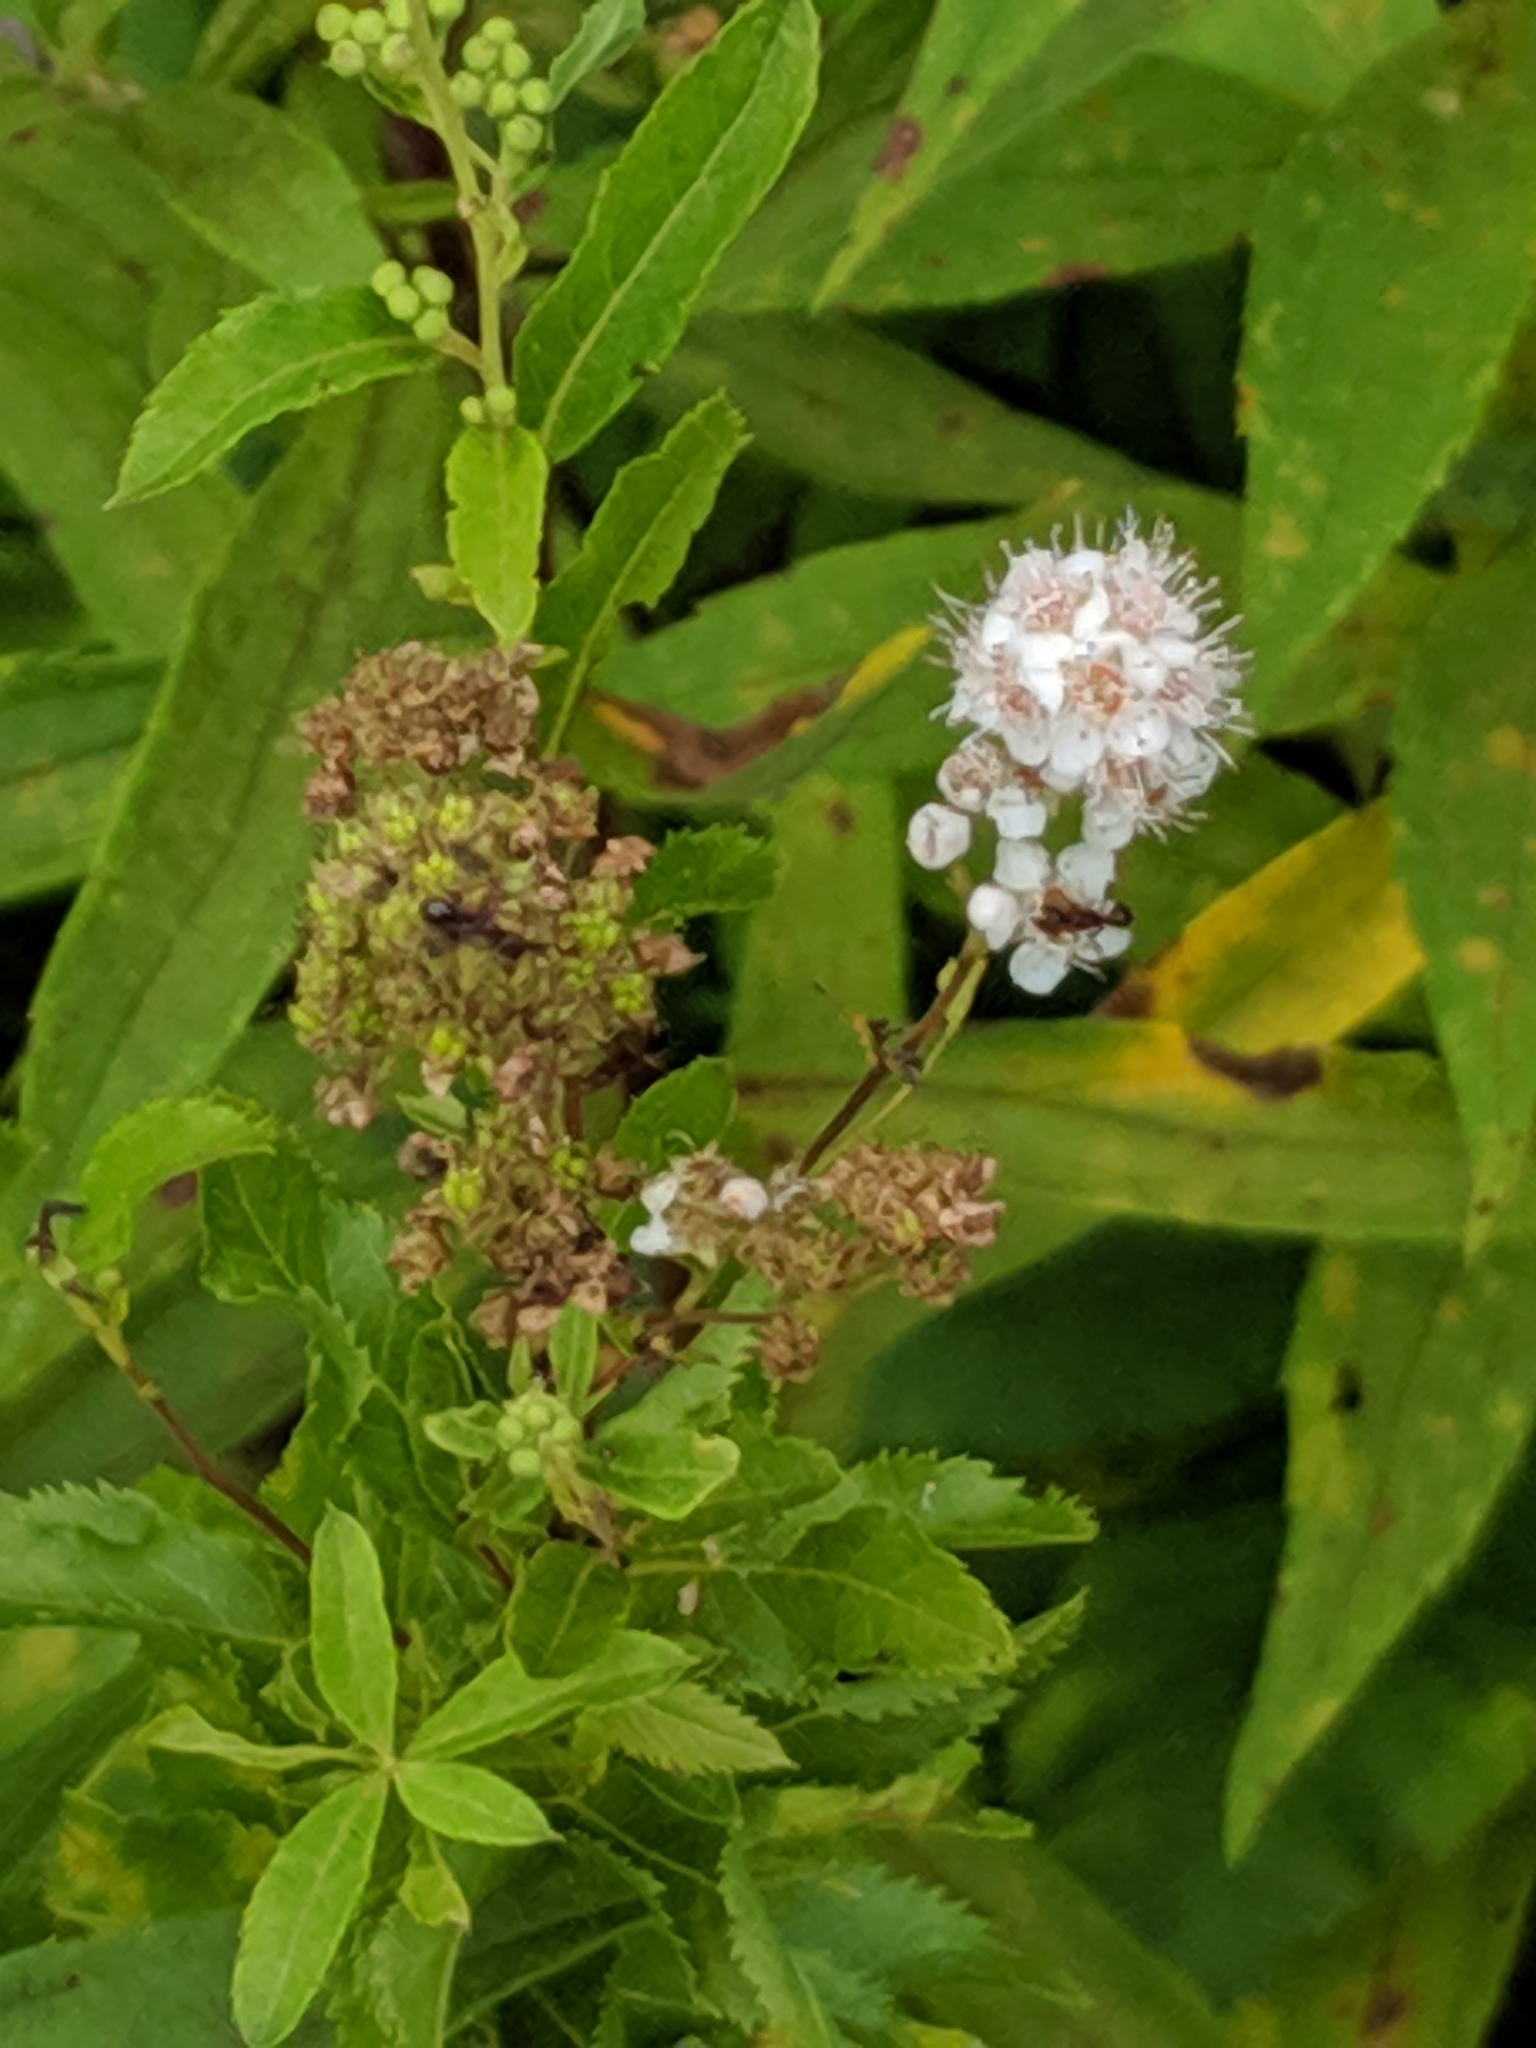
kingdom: Plantae
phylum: Tracheophyta
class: Magnoliopsida
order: Rosales
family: Rosaceae
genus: Spiraea
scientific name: Spiraea alba
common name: Pale bridewort
